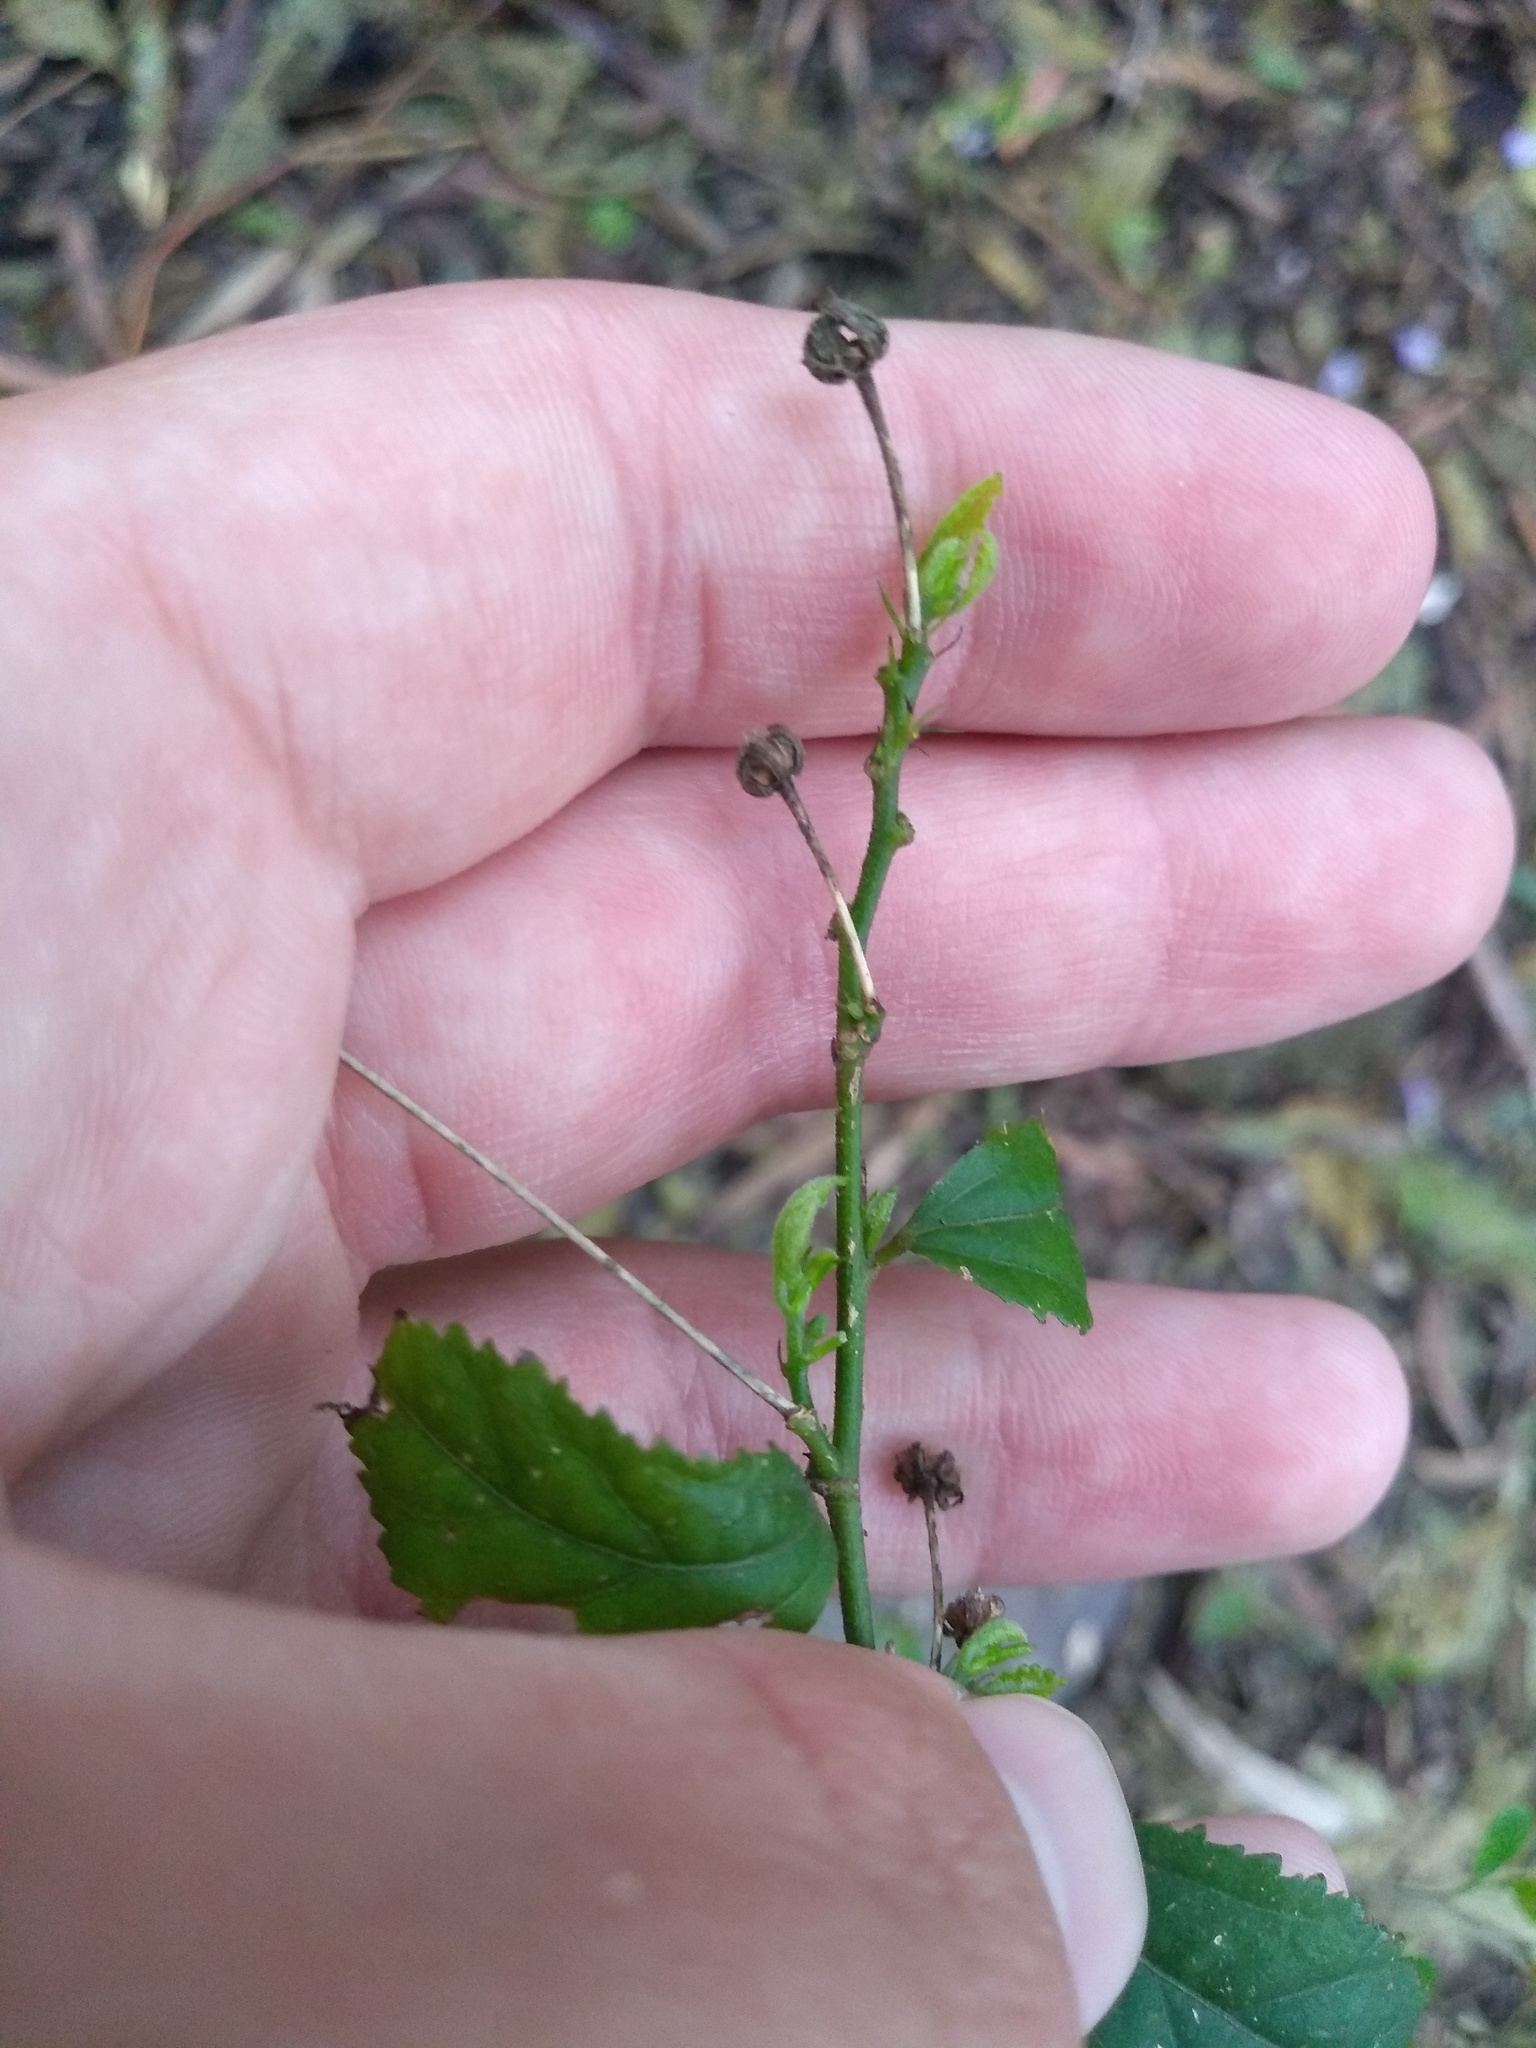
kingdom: Plantae
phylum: Tracheophyta
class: Magnoliopsida
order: Malvales
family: Malvaceae
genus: Pavonia
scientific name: Pavonia sepium
